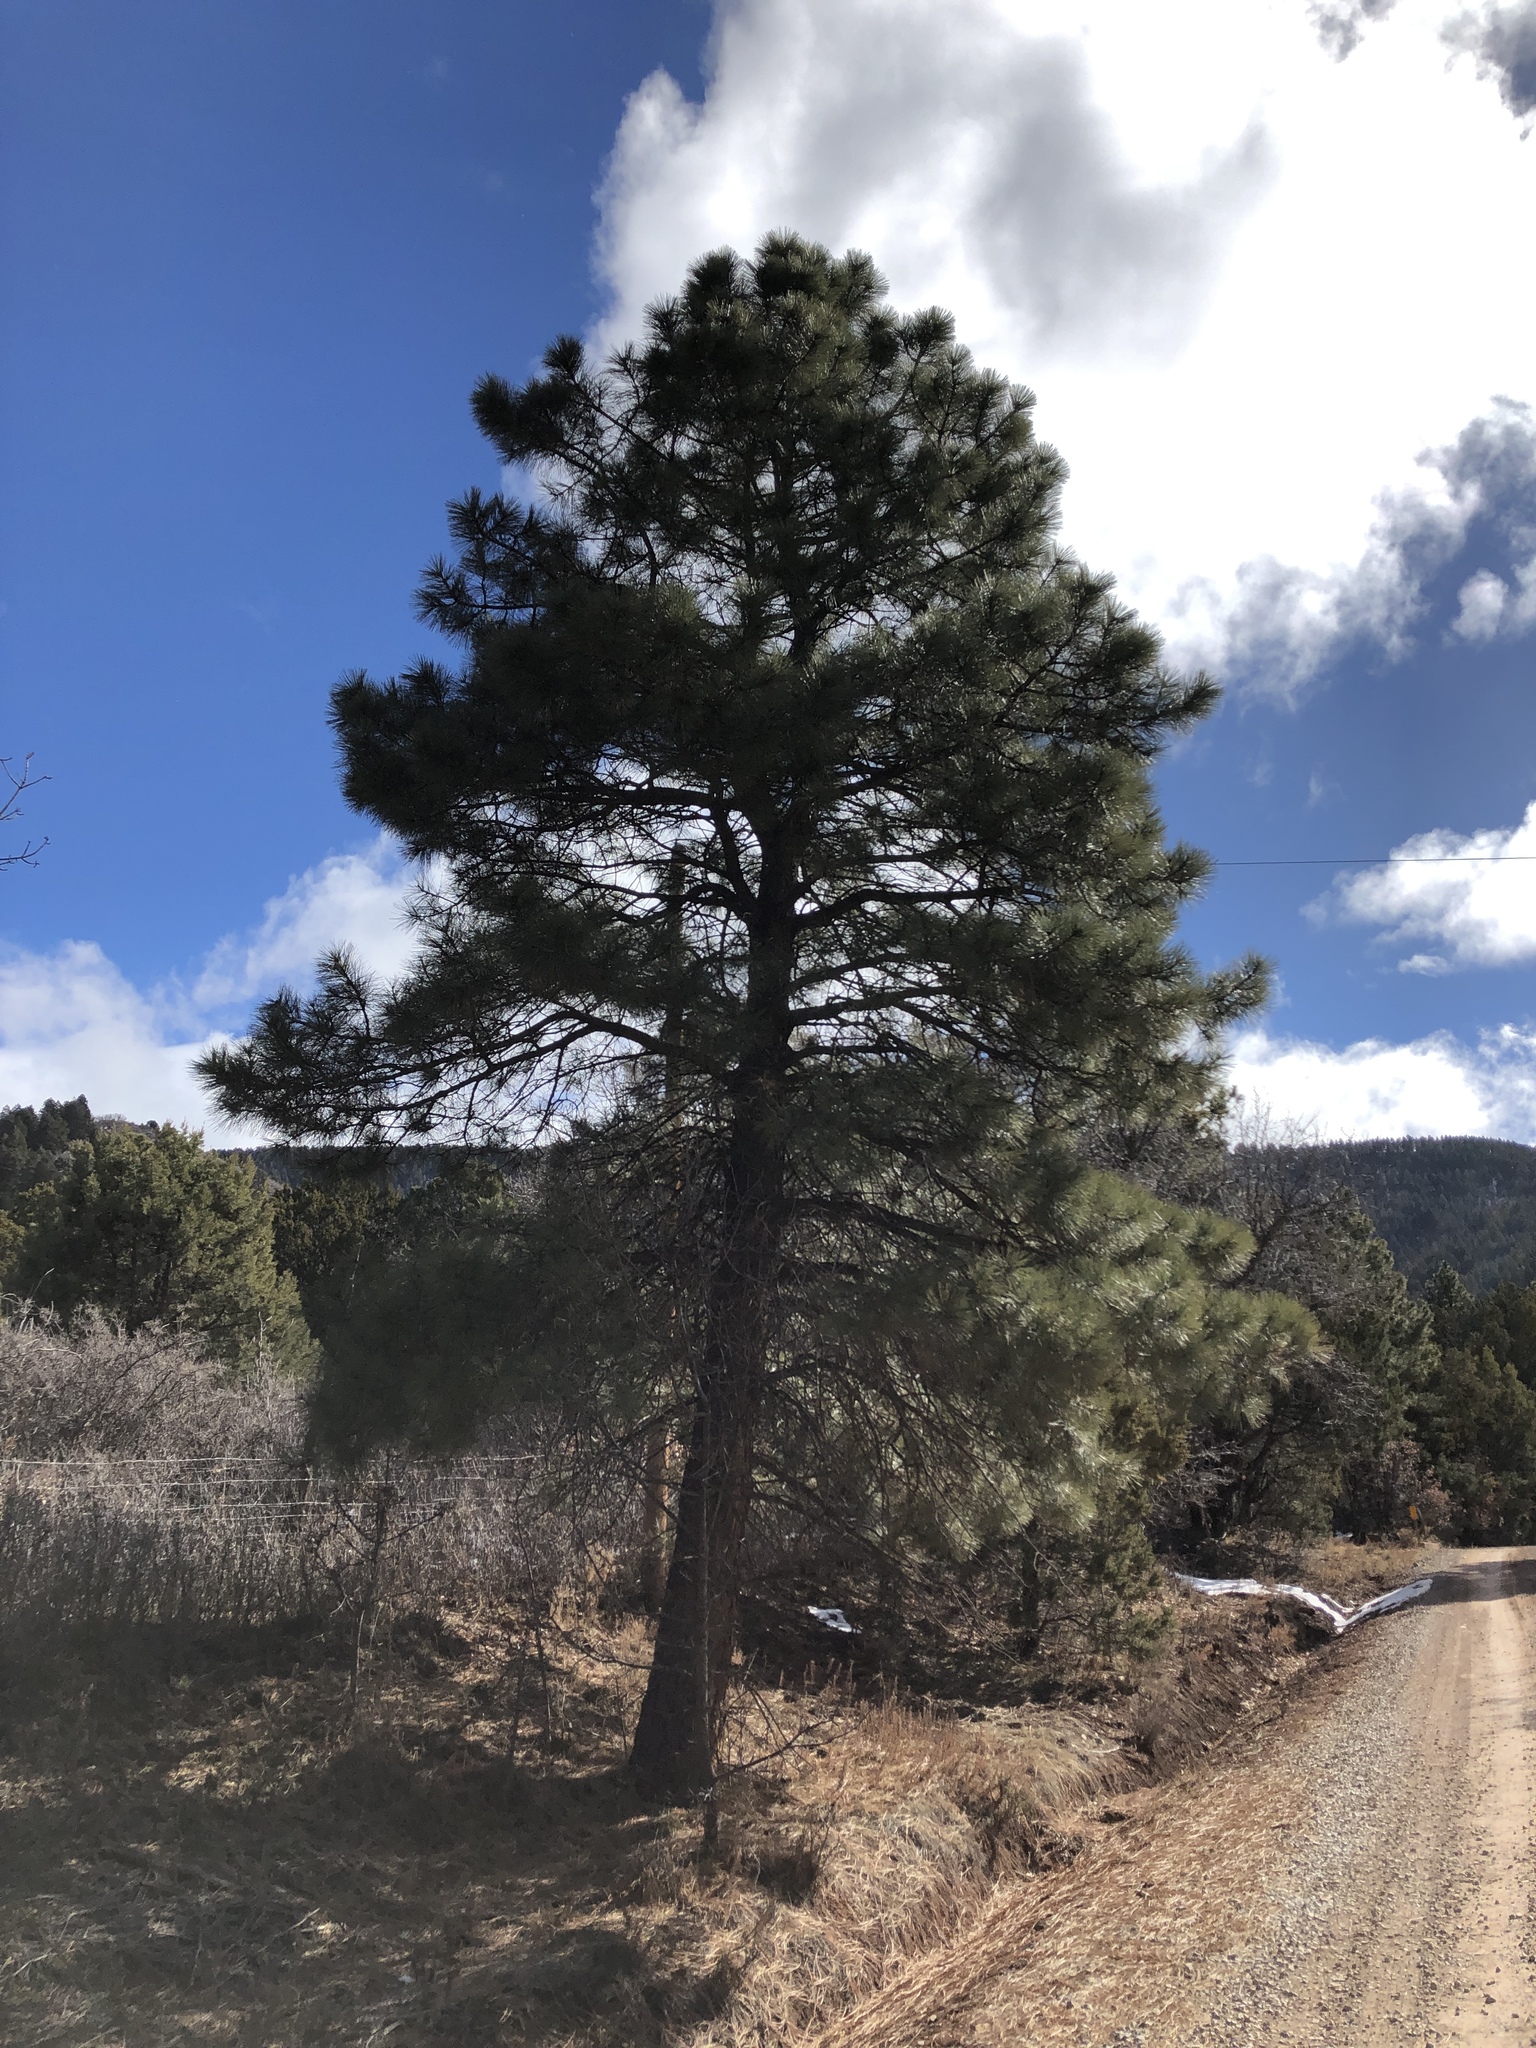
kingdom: Plantae
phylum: Tracheophyta
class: Pinopsida
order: Pinales
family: Pinaceae
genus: Pinus
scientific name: Pinus ponderosa
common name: Western yellow-pine
